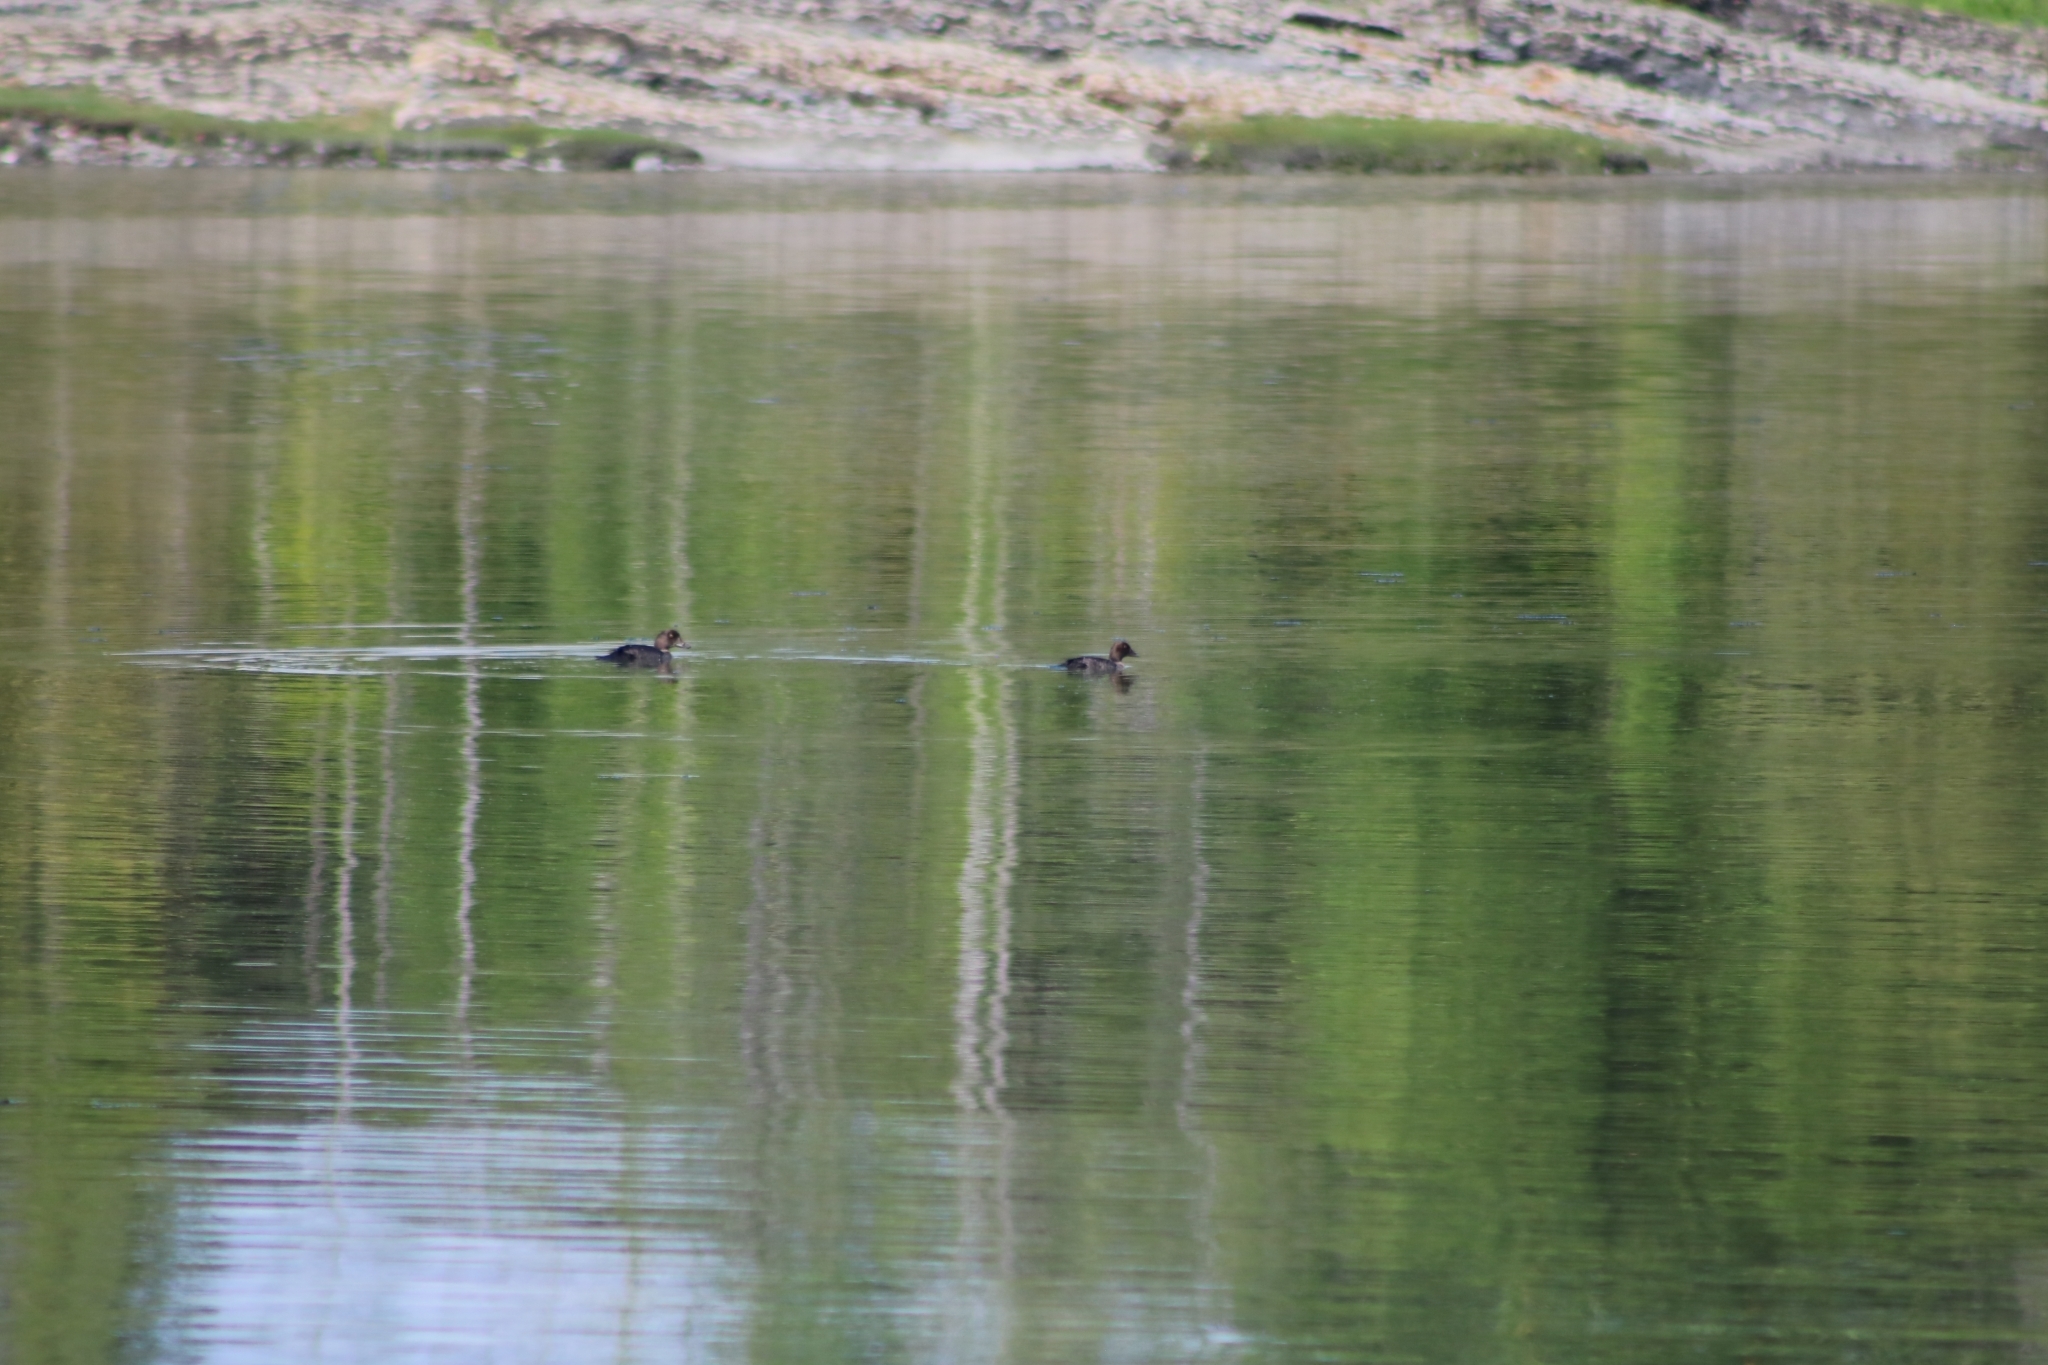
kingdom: Animalia
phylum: Chordata
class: Aves
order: Anseriformes
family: Anatidae
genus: Bucephala
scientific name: Bucephala clangula
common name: Common goldeneye
